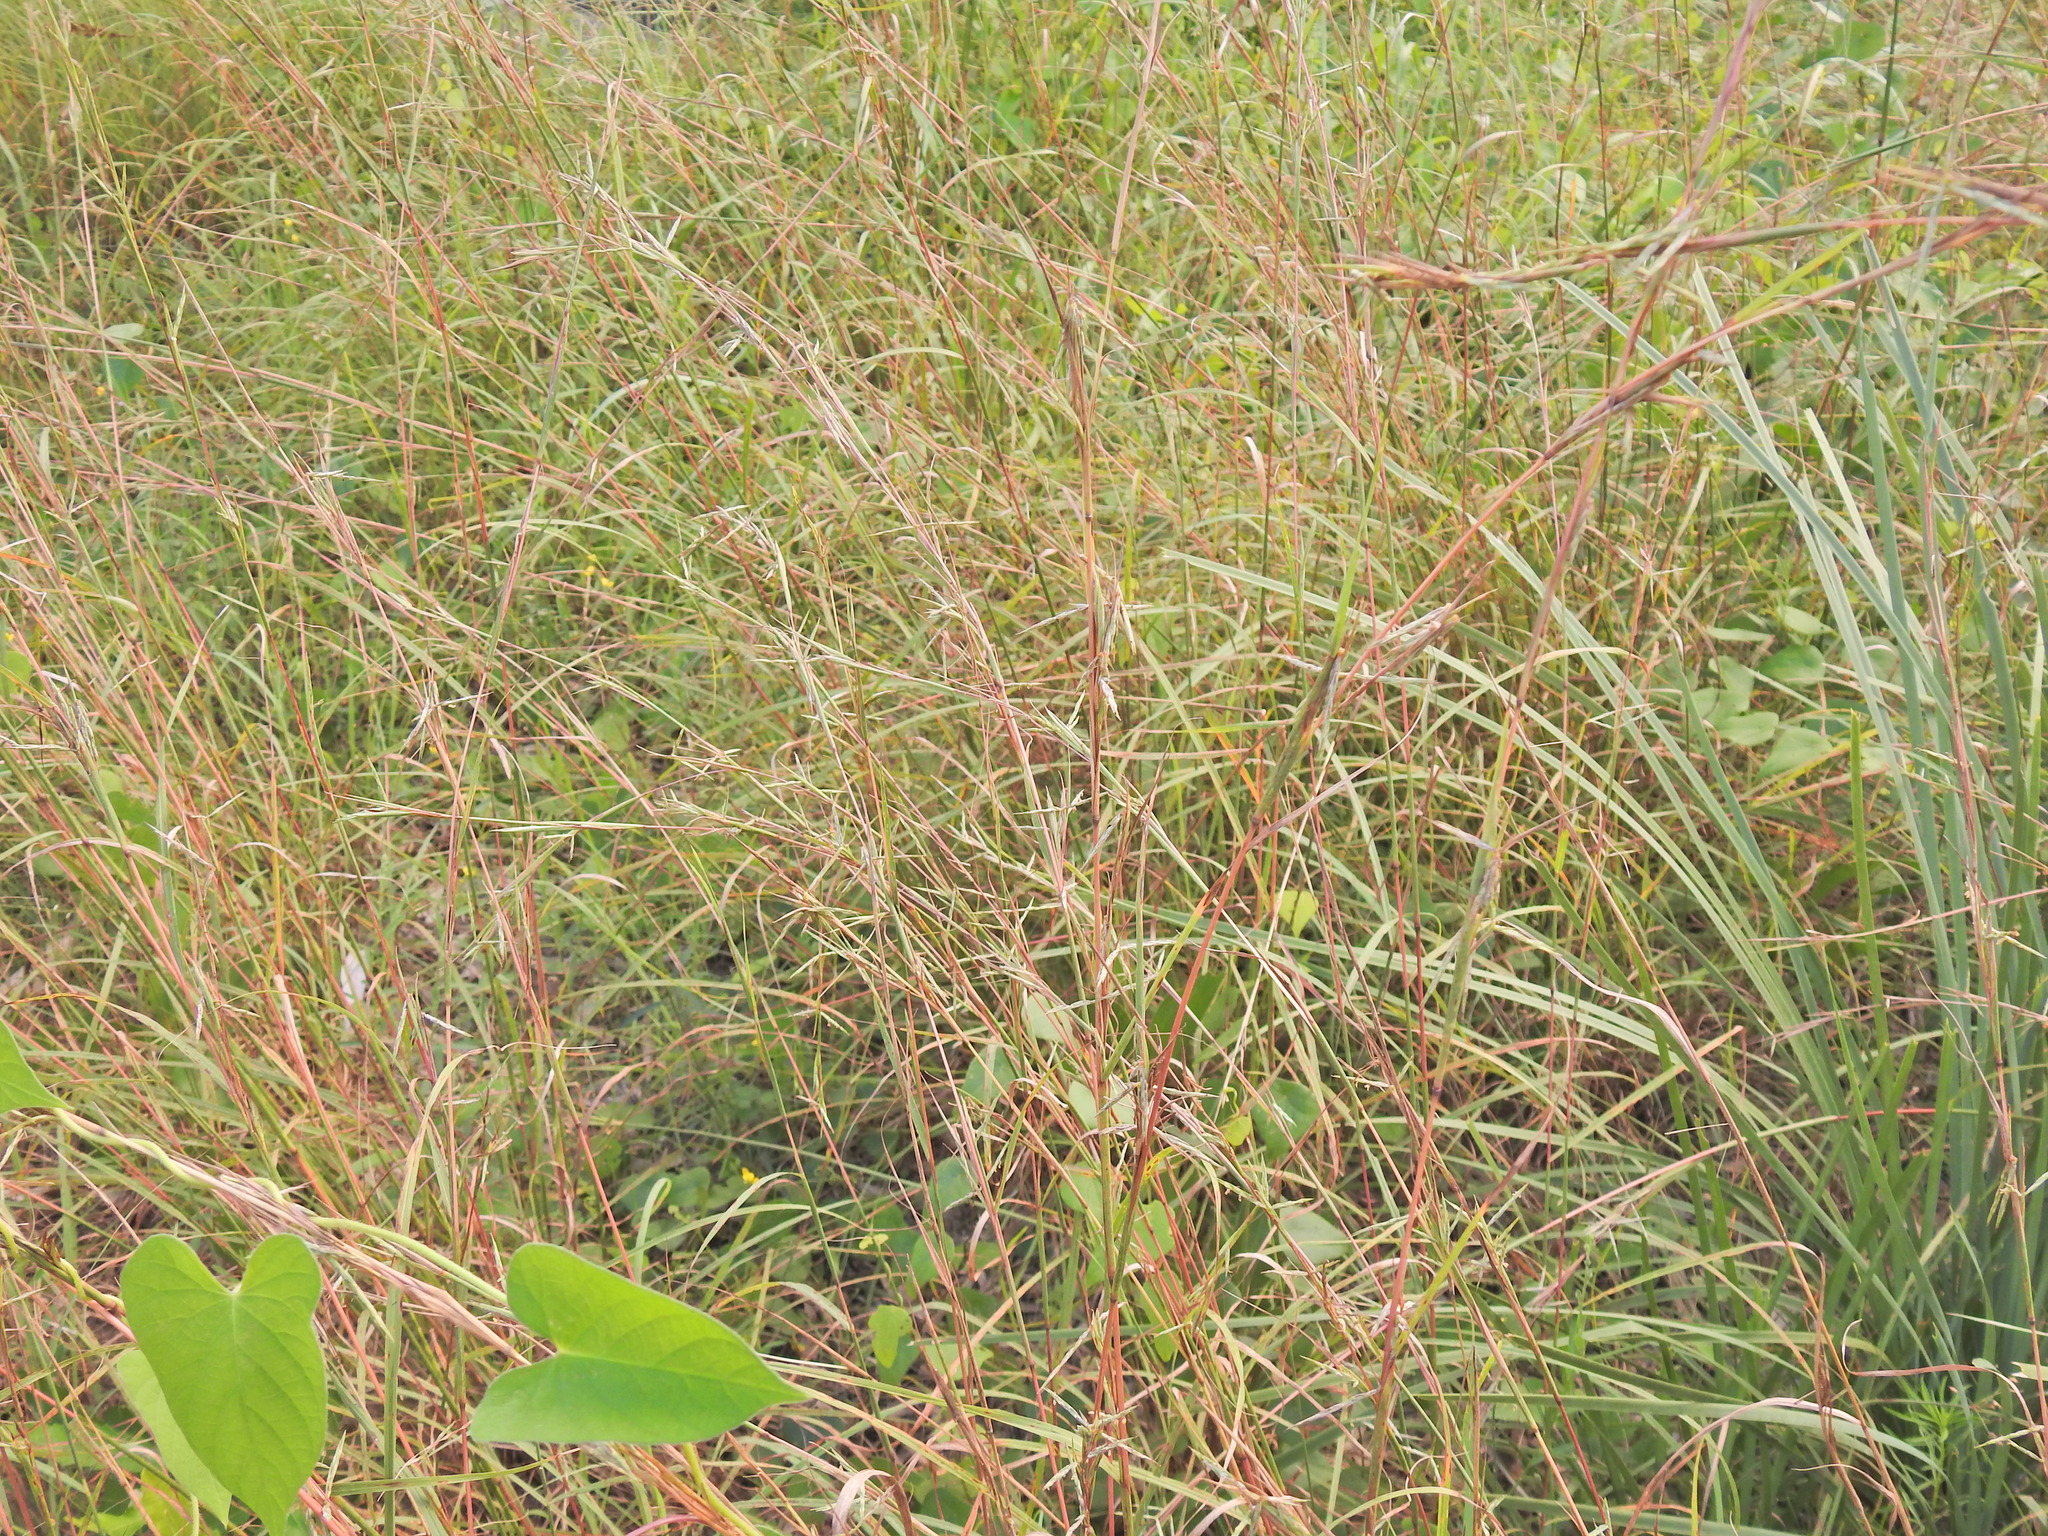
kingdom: Plantae
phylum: Tracheophyta
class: Liliopsida
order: Poales
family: Poaceae
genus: Cymbopogon
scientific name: Cymbopogon refractus
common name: Barbwire grass
